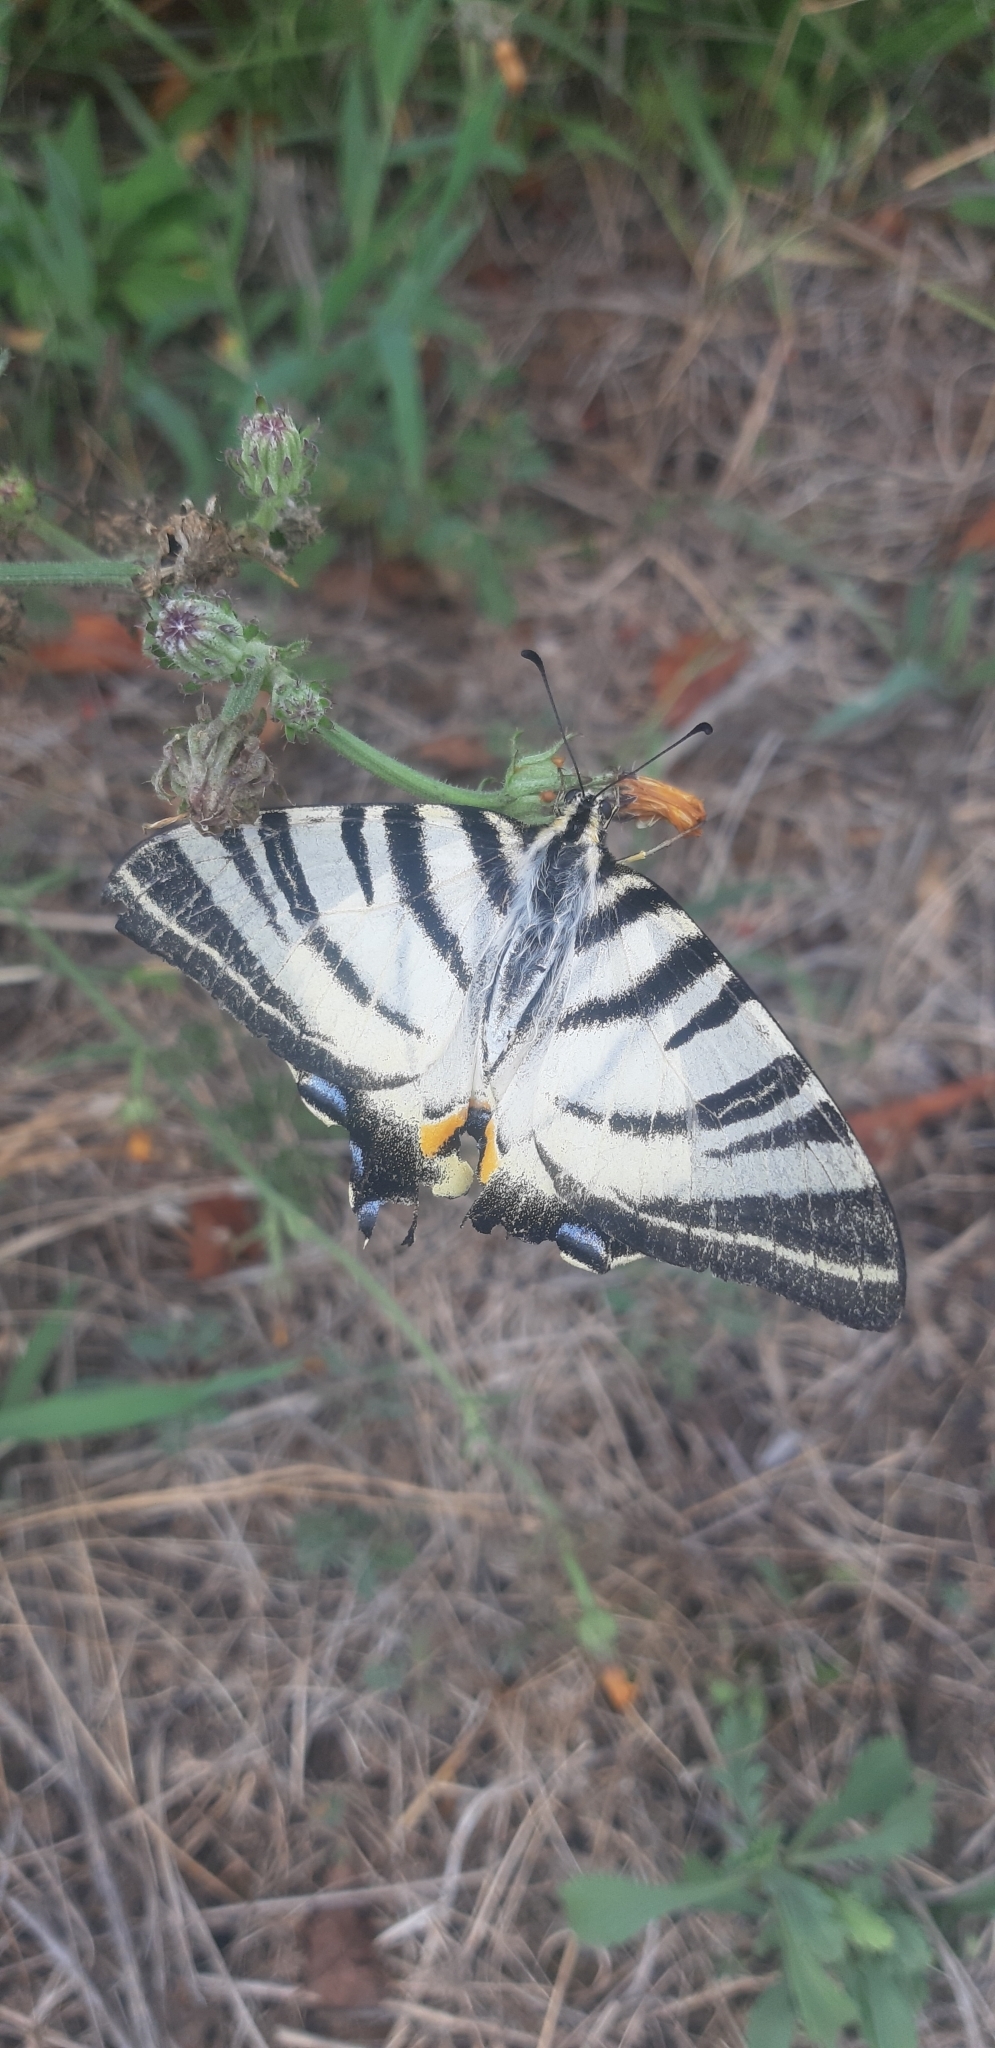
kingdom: Animalia
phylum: Arthropoda
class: Insecta
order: Lepidoptera
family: Papilionidae
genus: Iphiclides
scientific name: Iphiclides podalirius
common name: Scarce swallowtail
